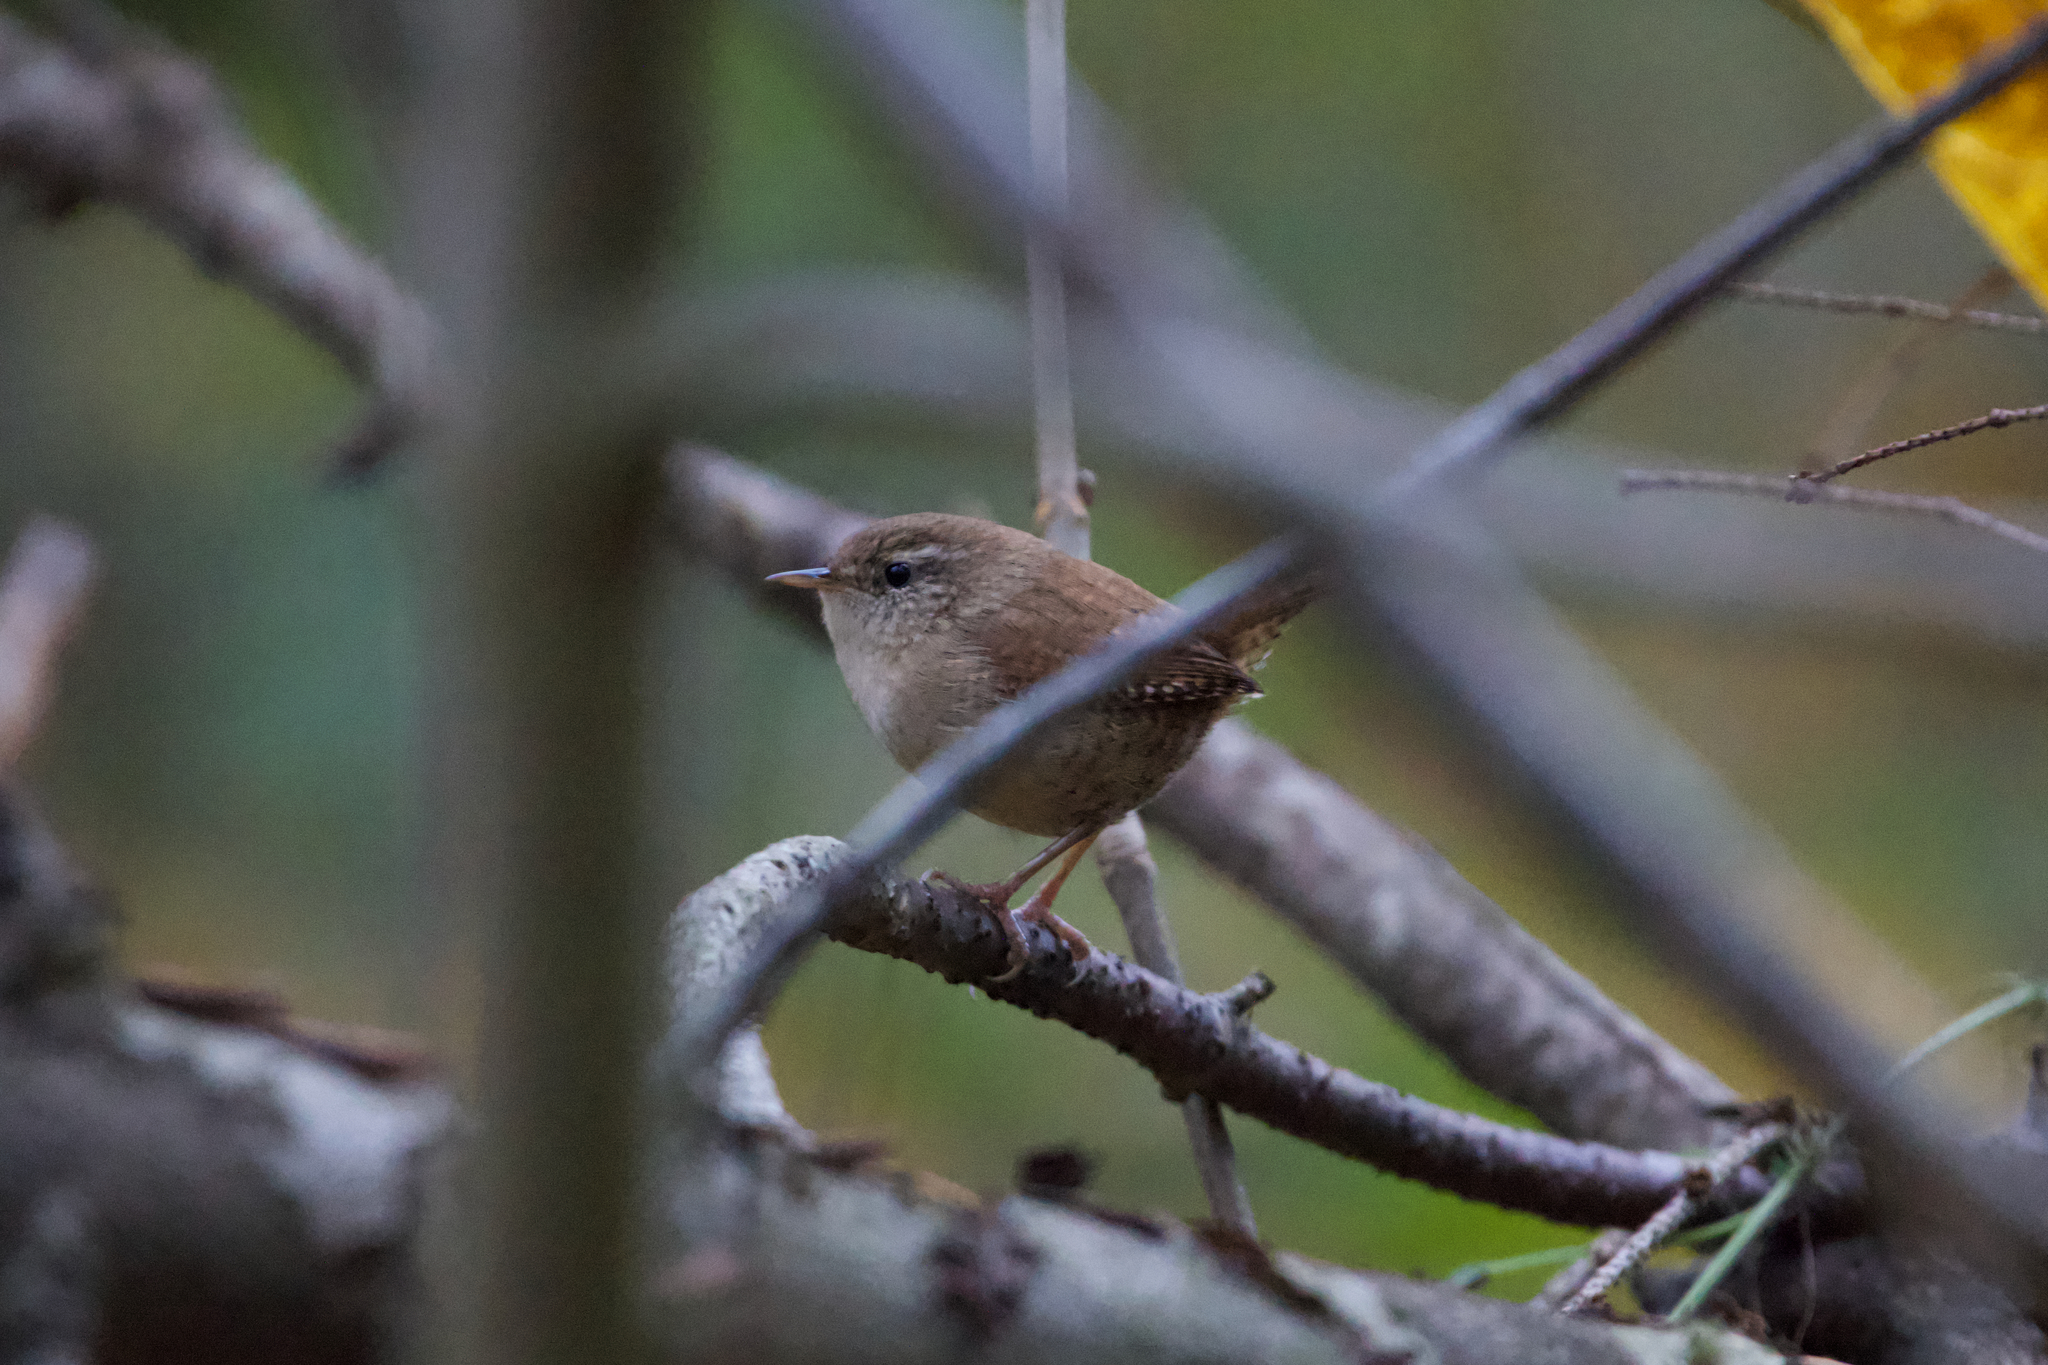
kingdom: Animalia
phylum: Chordata
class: Aves
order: Passeriformes
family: Troglodytidae
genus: Troglodytes
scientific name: Troglodytes troglodytes
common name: Eurasian wren
